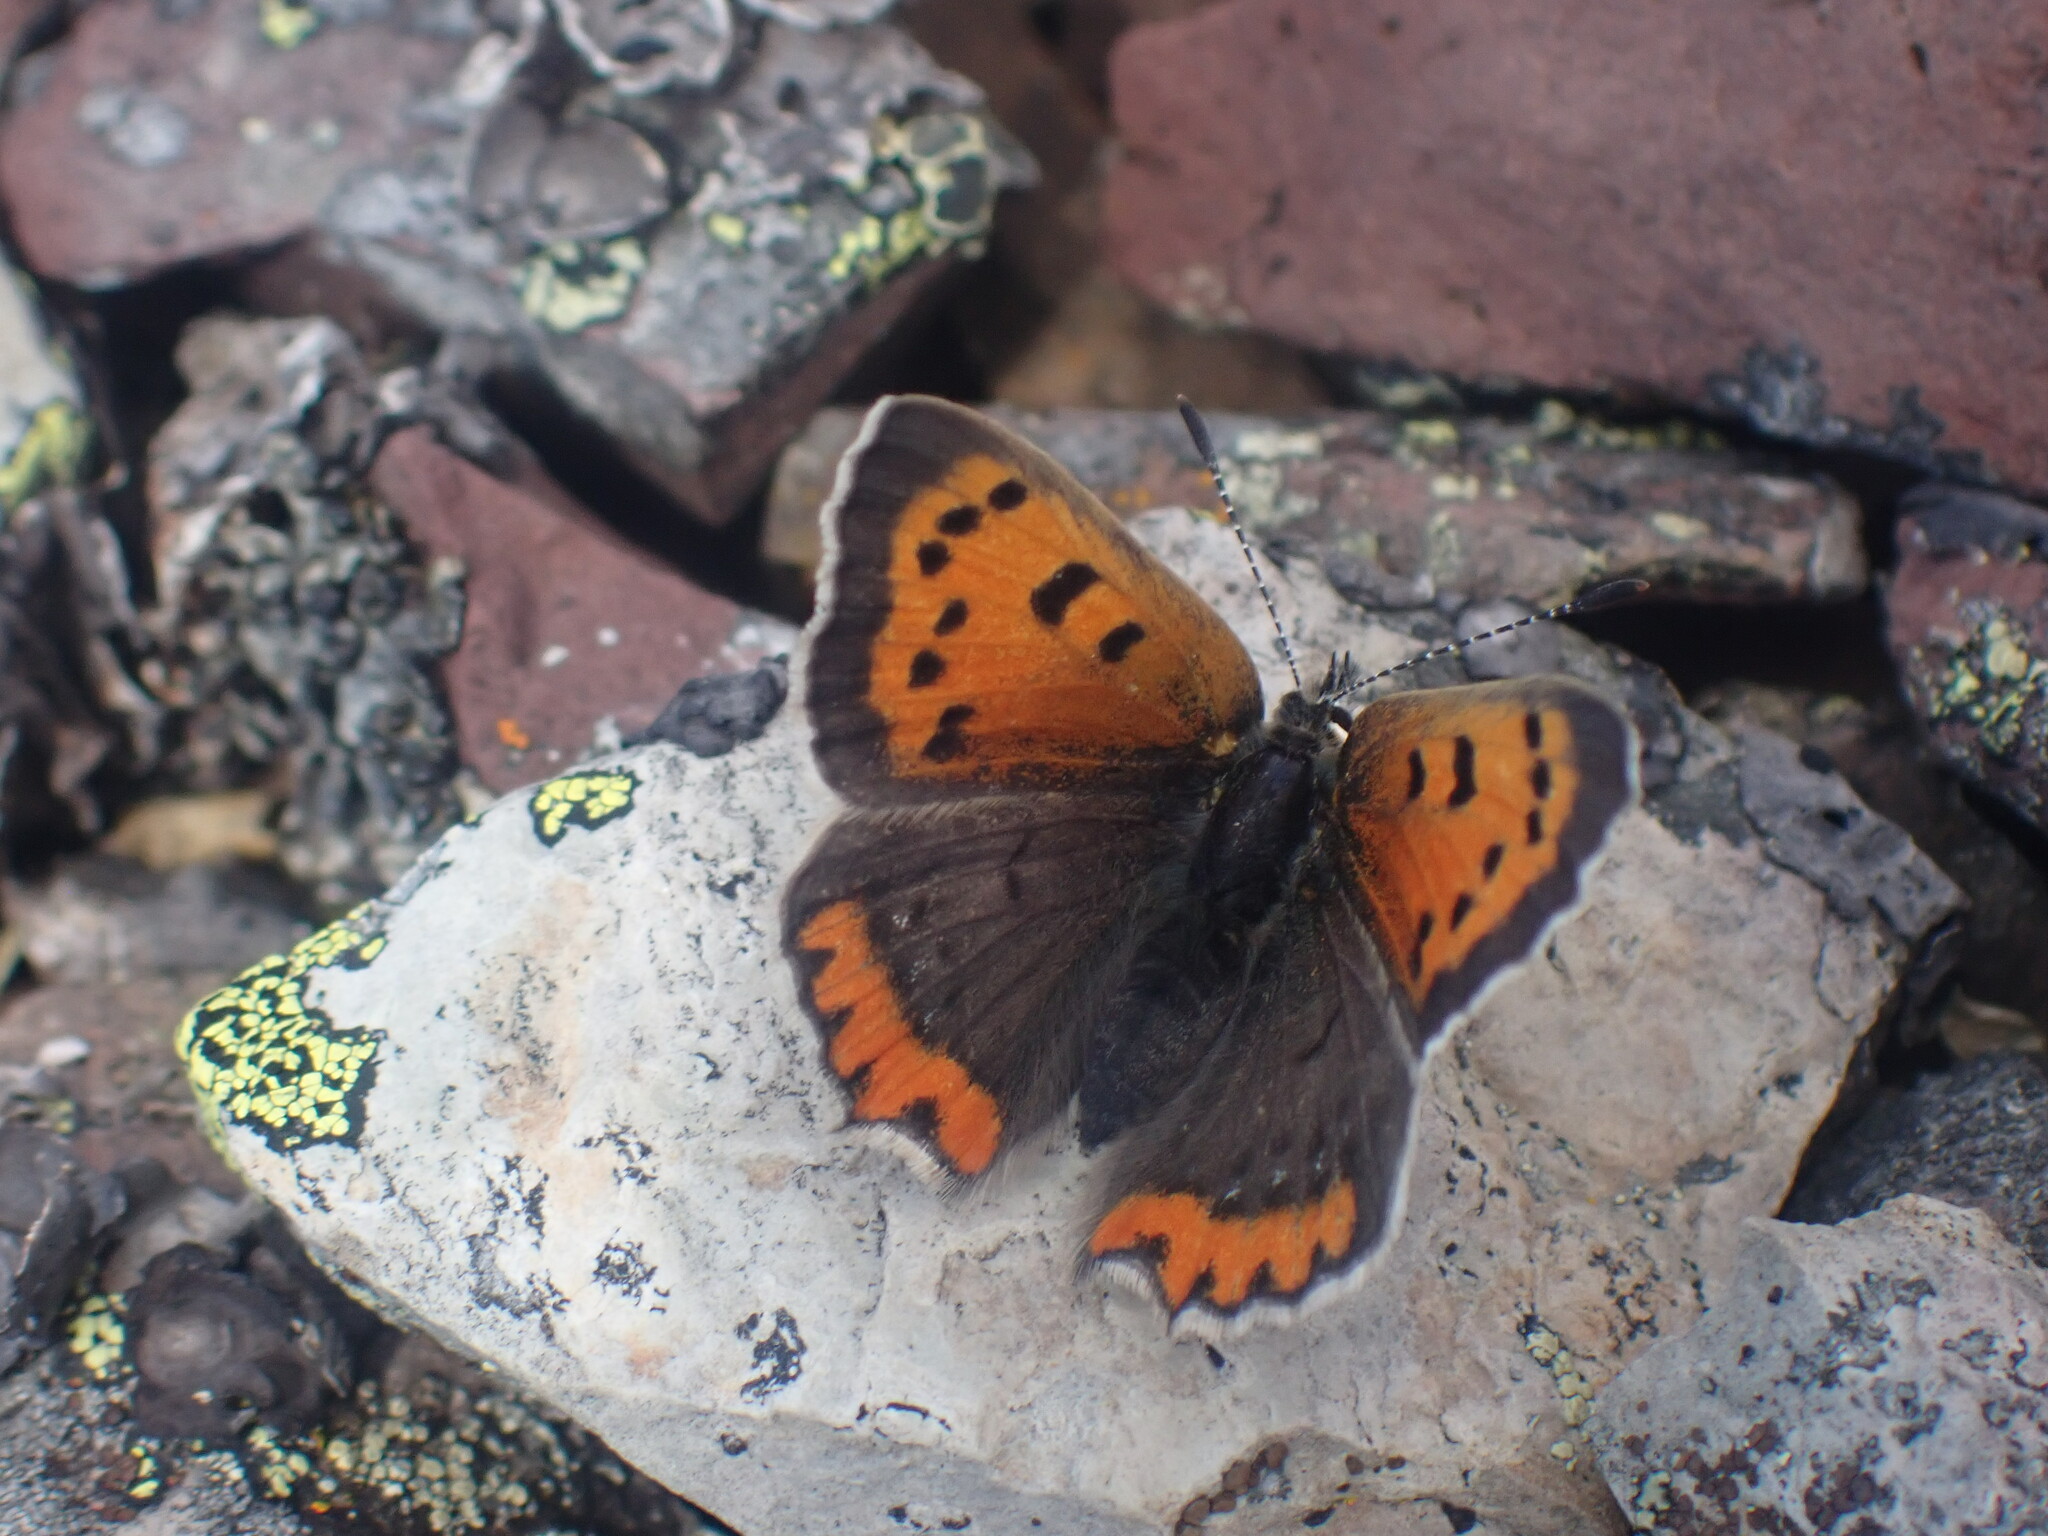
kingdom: Animalia
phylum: Arthropoda
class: Insecta
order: Lepidoptera
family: Lycaenidae
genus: Lycaena
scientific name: Lycaena hypophlaeas
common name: American copper
